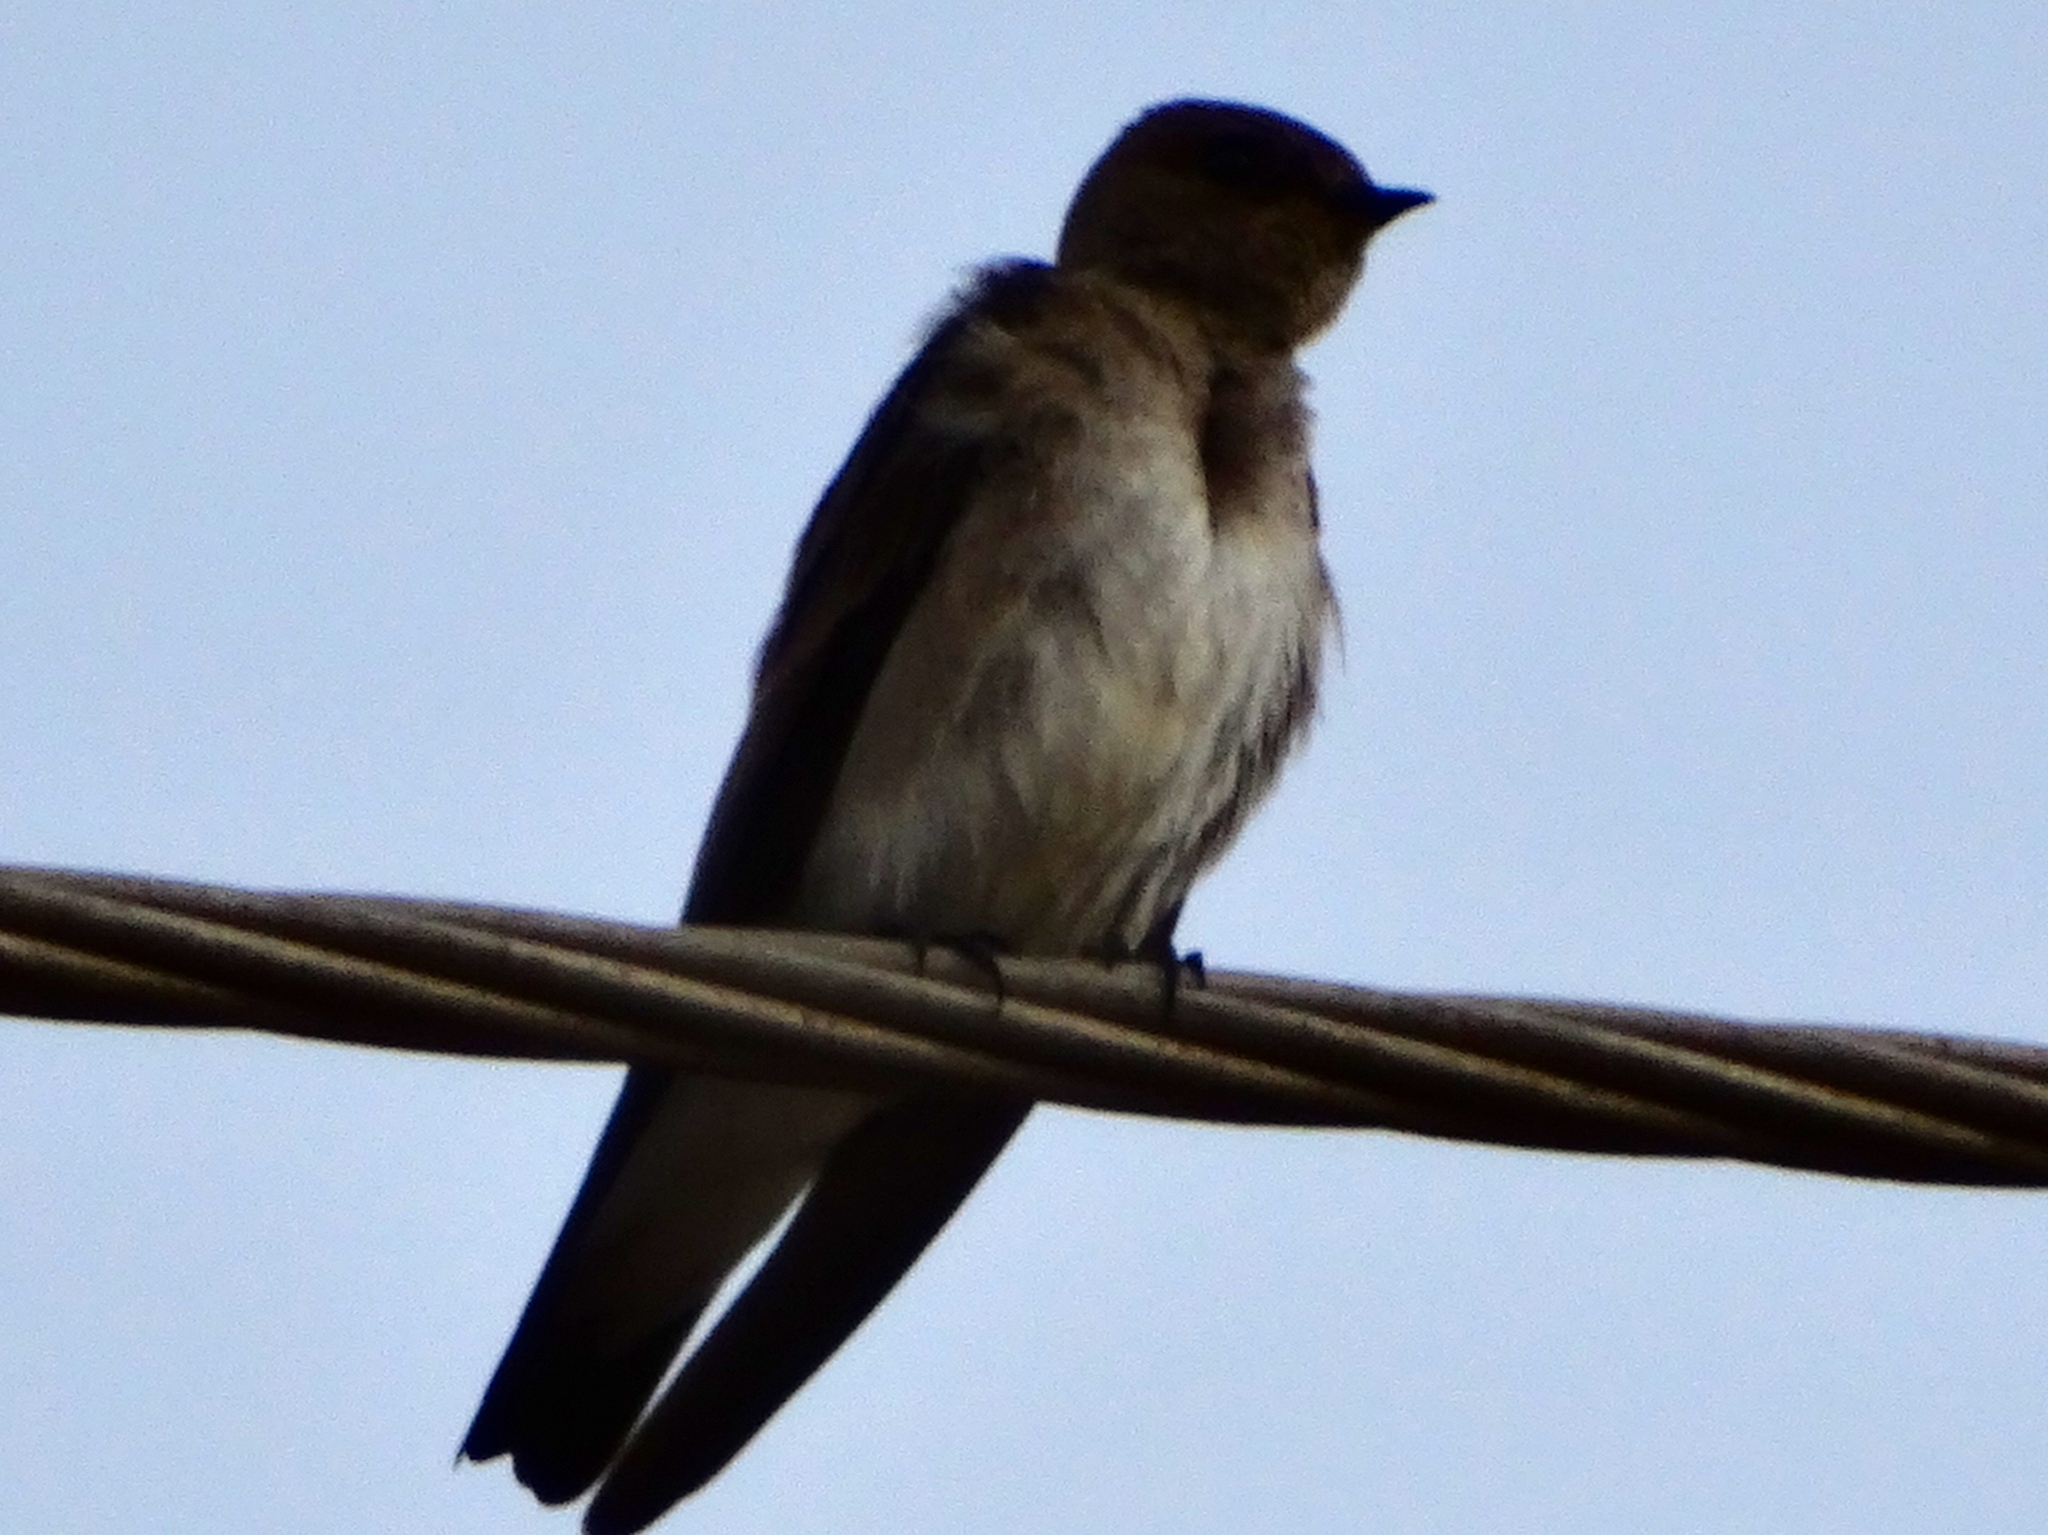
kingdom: Animalia
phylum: Chordata
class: Aves
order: Passeriformes
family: Hirundinidae
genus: Stelgidopteryx
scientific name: Stelgidopteryx serripennis
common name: Northern rough-winged swallow
